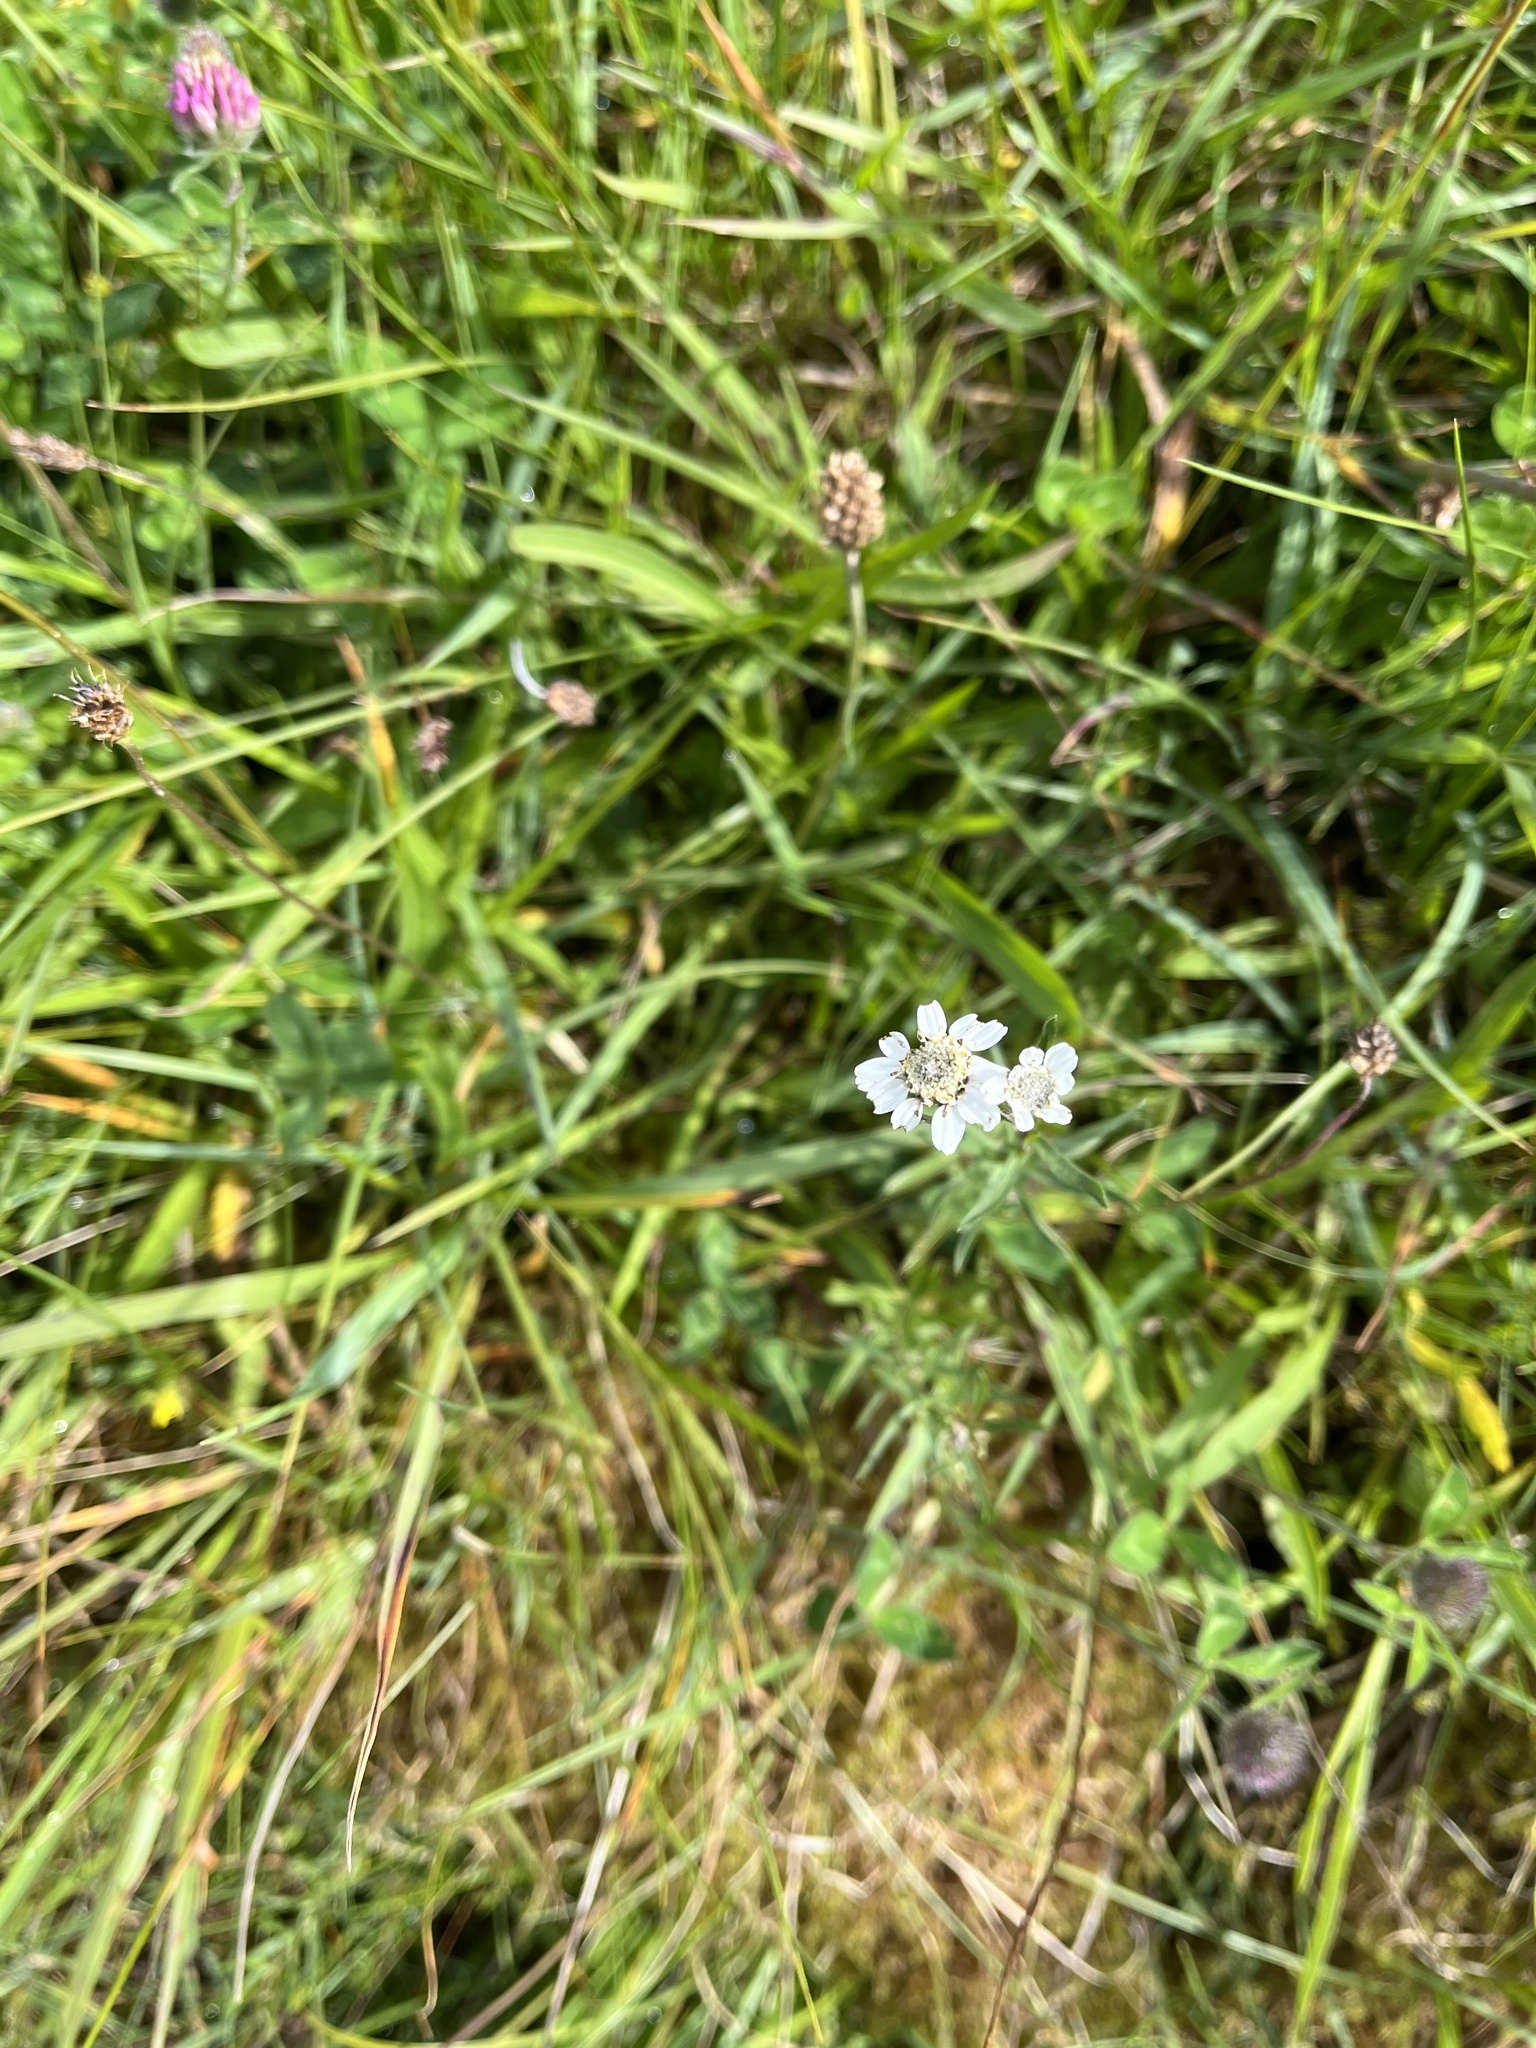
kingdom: Plantae
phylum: Tracheophyta
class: Magnoliopsida
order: Asterales
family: Asteraceae
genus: Achillea
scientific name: Achillea ptarmica
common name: Sneezeweed
